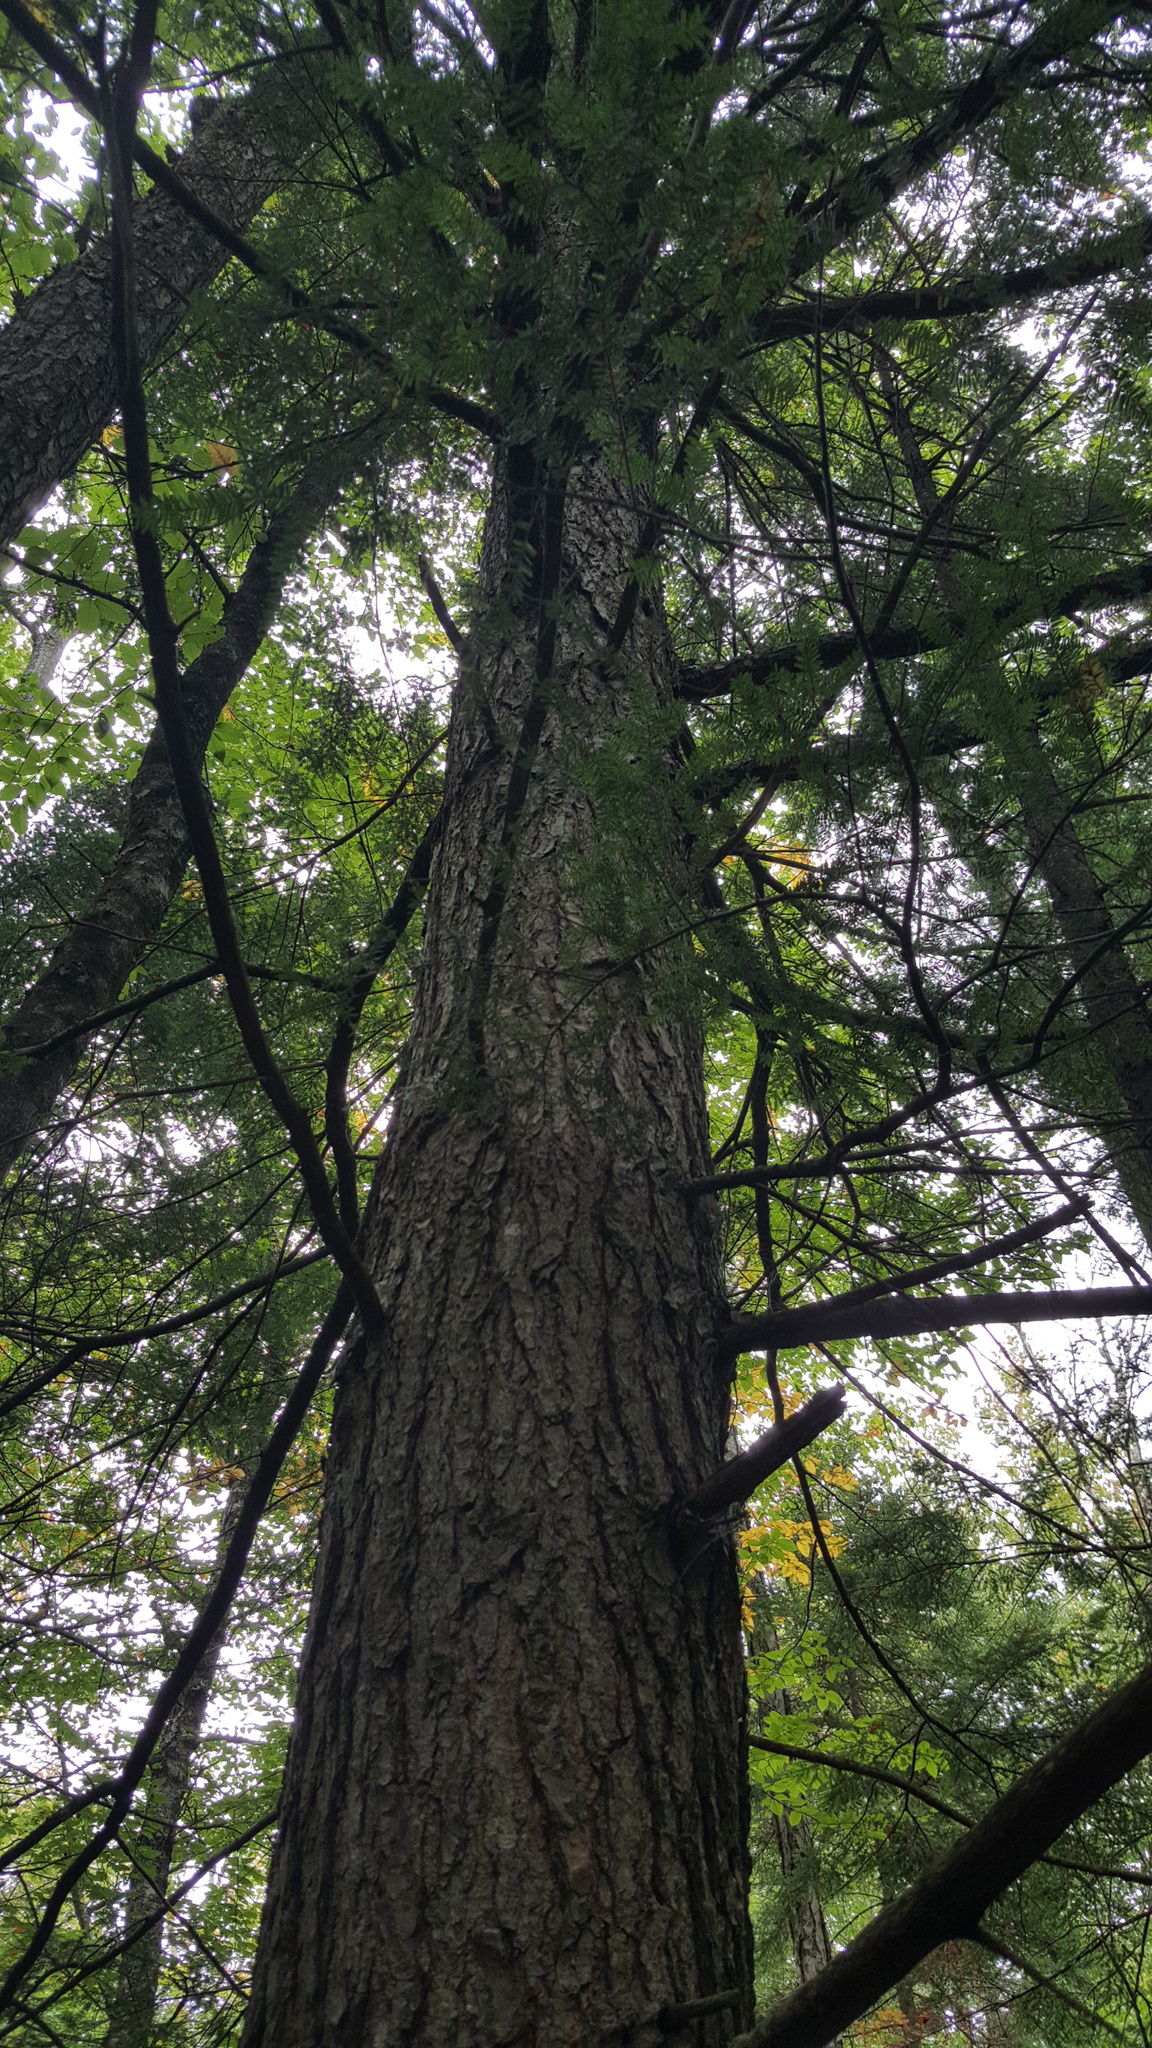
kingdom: Plantae
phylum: Tracheophyta
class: Pinopsida
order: Pinales
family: Pinaceae
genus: Tsuga
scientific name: Tsuga canadensis
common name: Eastern hemlock
